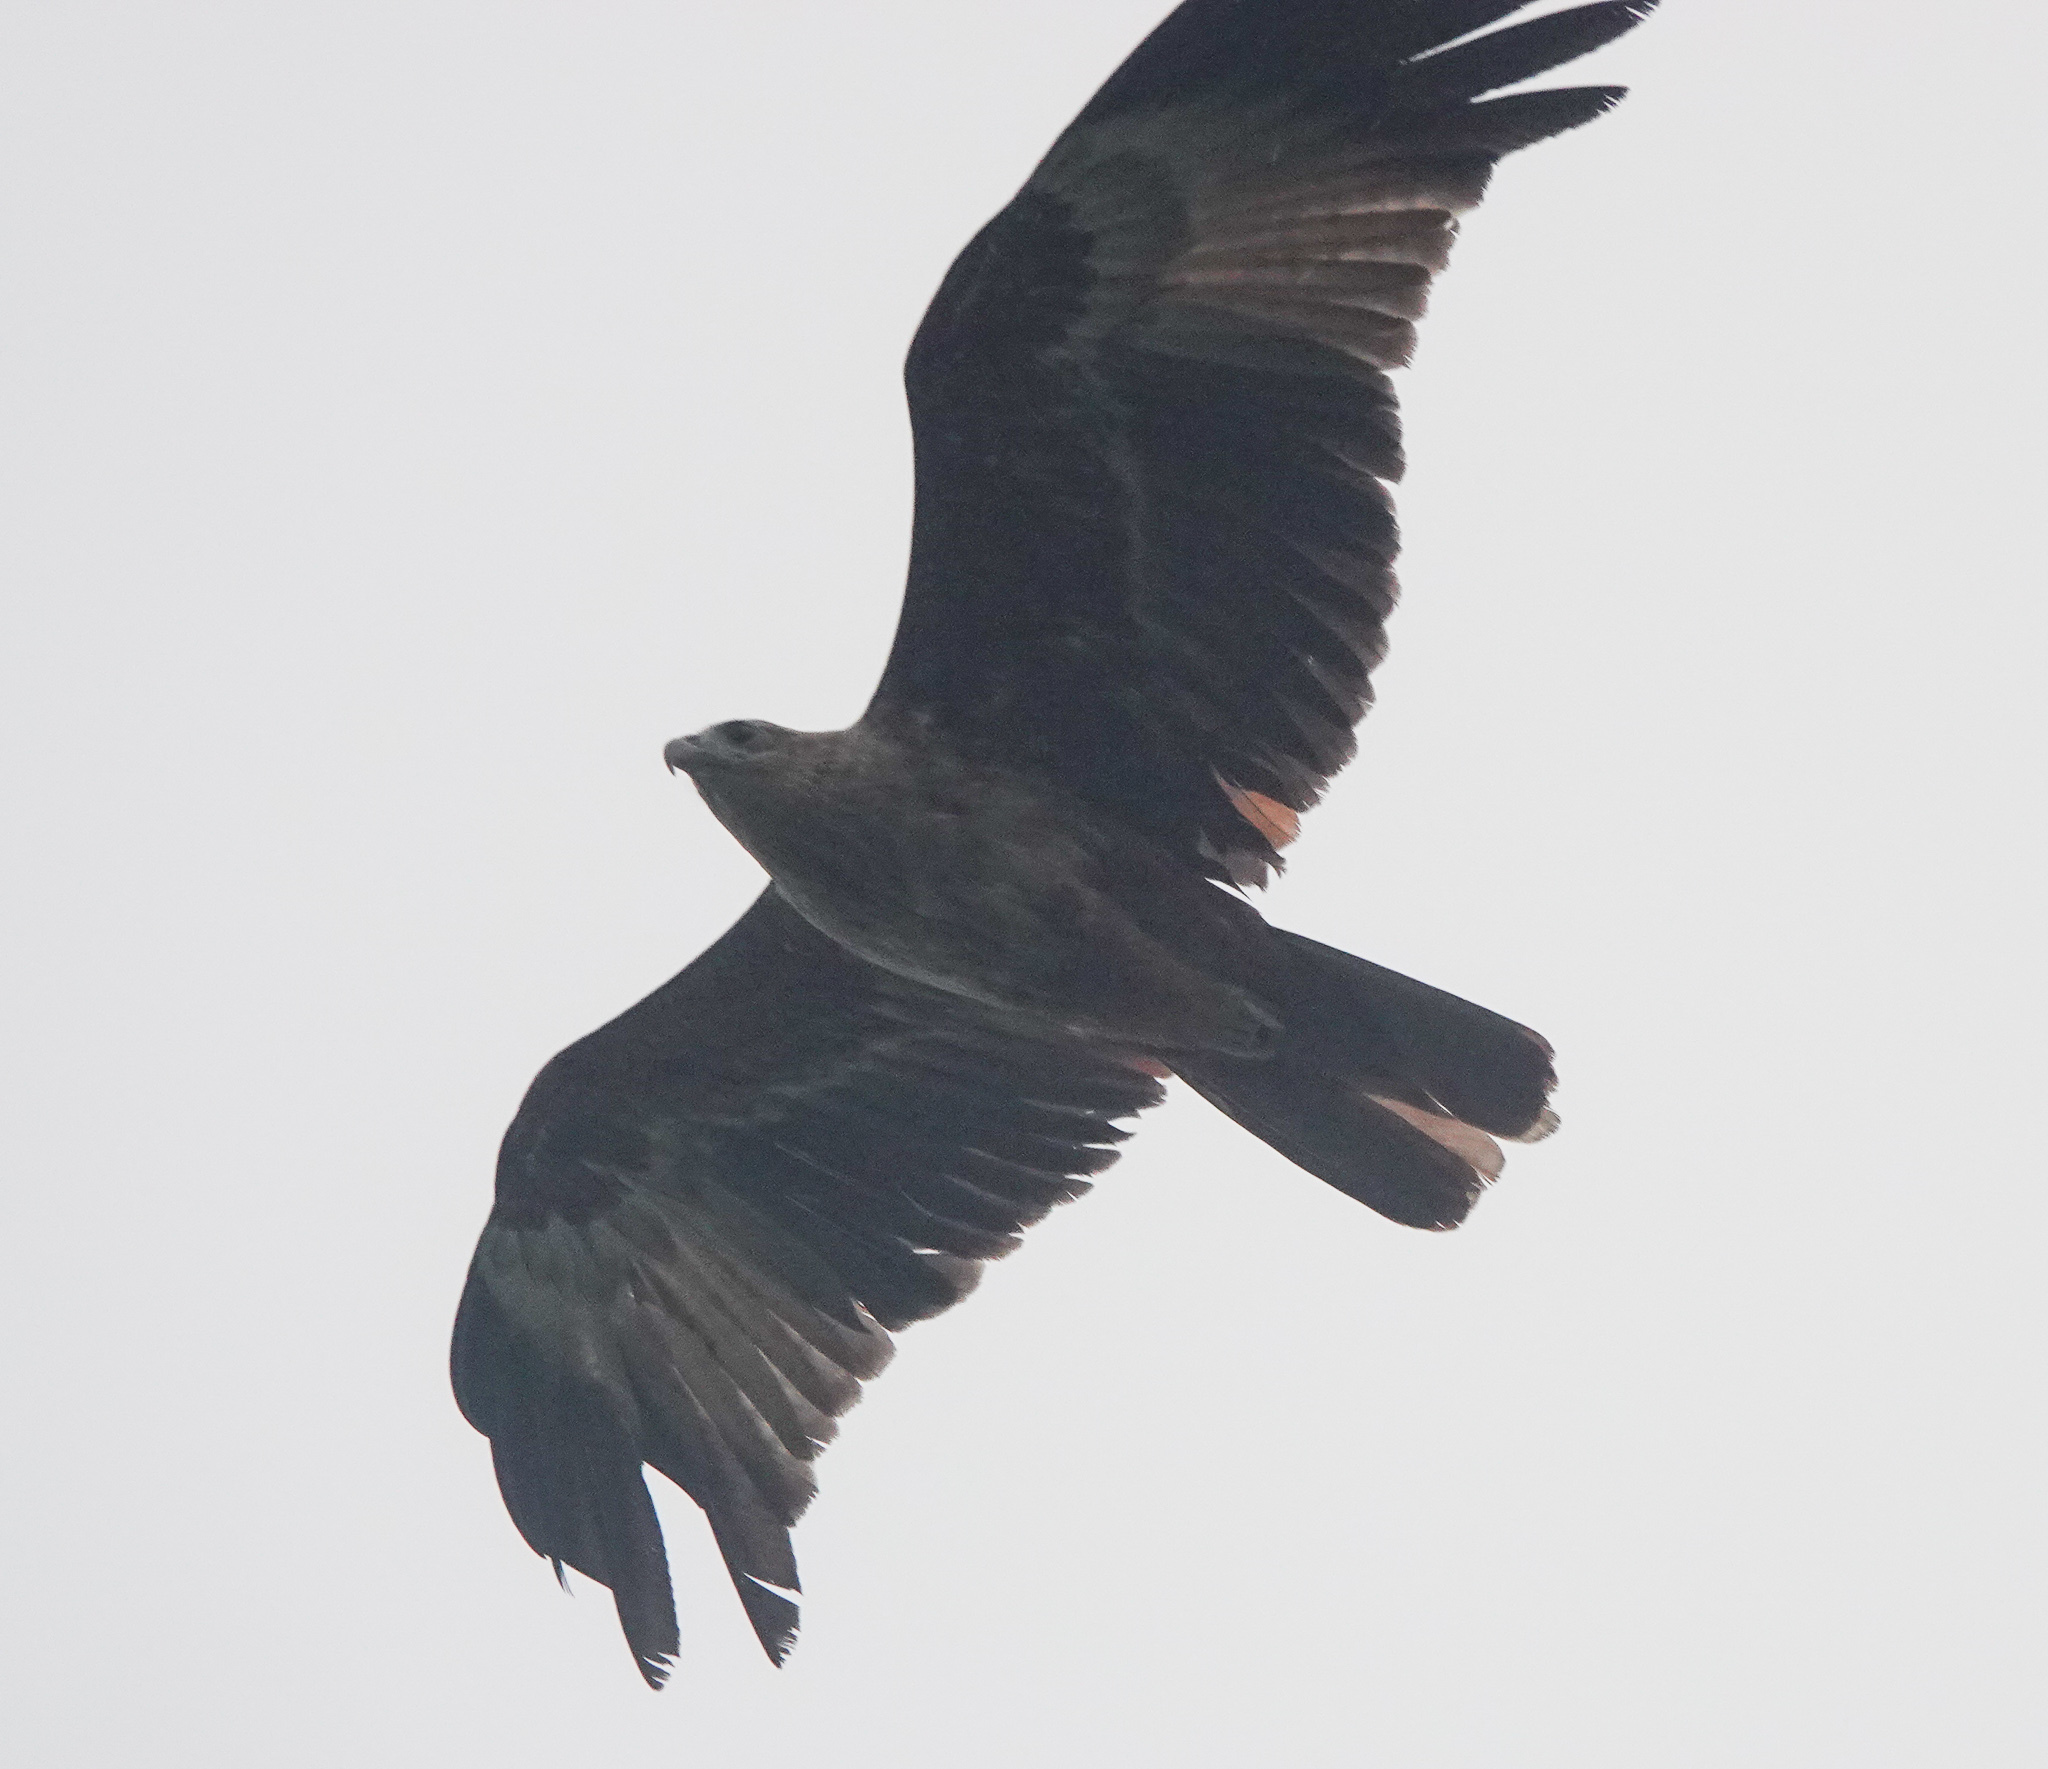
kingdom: Animalia
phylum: Chordata
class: Aves
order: Accipitriformes
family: Accipitridae
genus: Haliastur
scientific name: Haliastur indus
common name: Brahminy kite
